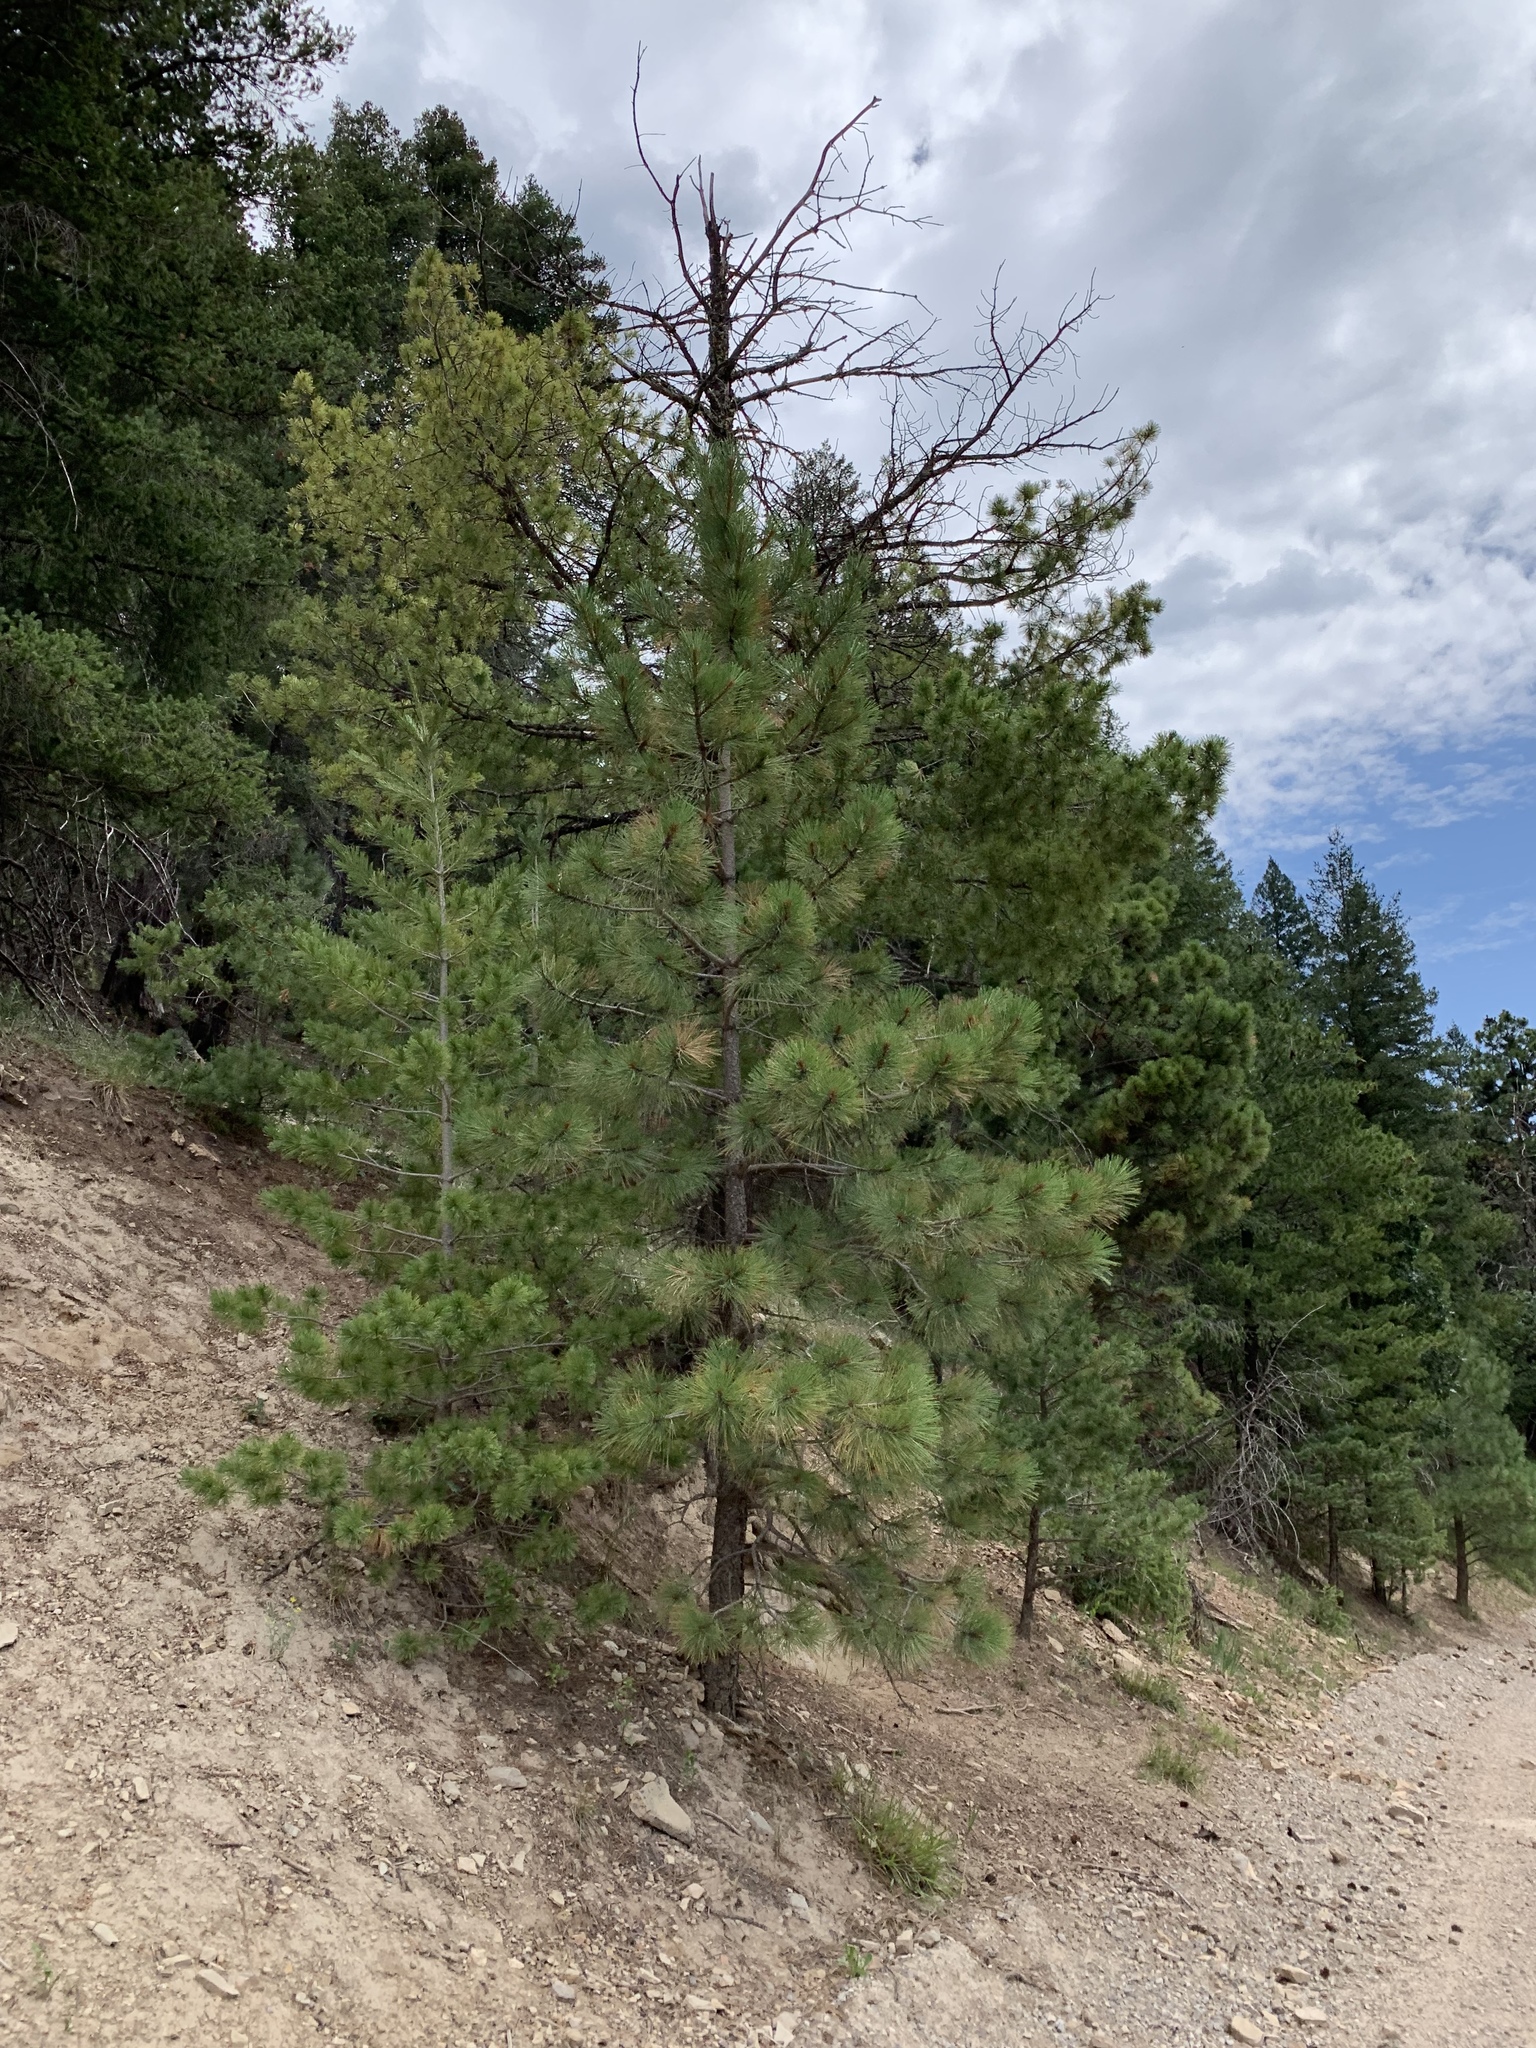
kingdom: Plantae
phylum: Tracheophyta
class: Pinopsida
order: Pinales
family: Pinaceae
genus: Pinus
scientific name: Pinus ponderosa
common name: Western yellow-pine
